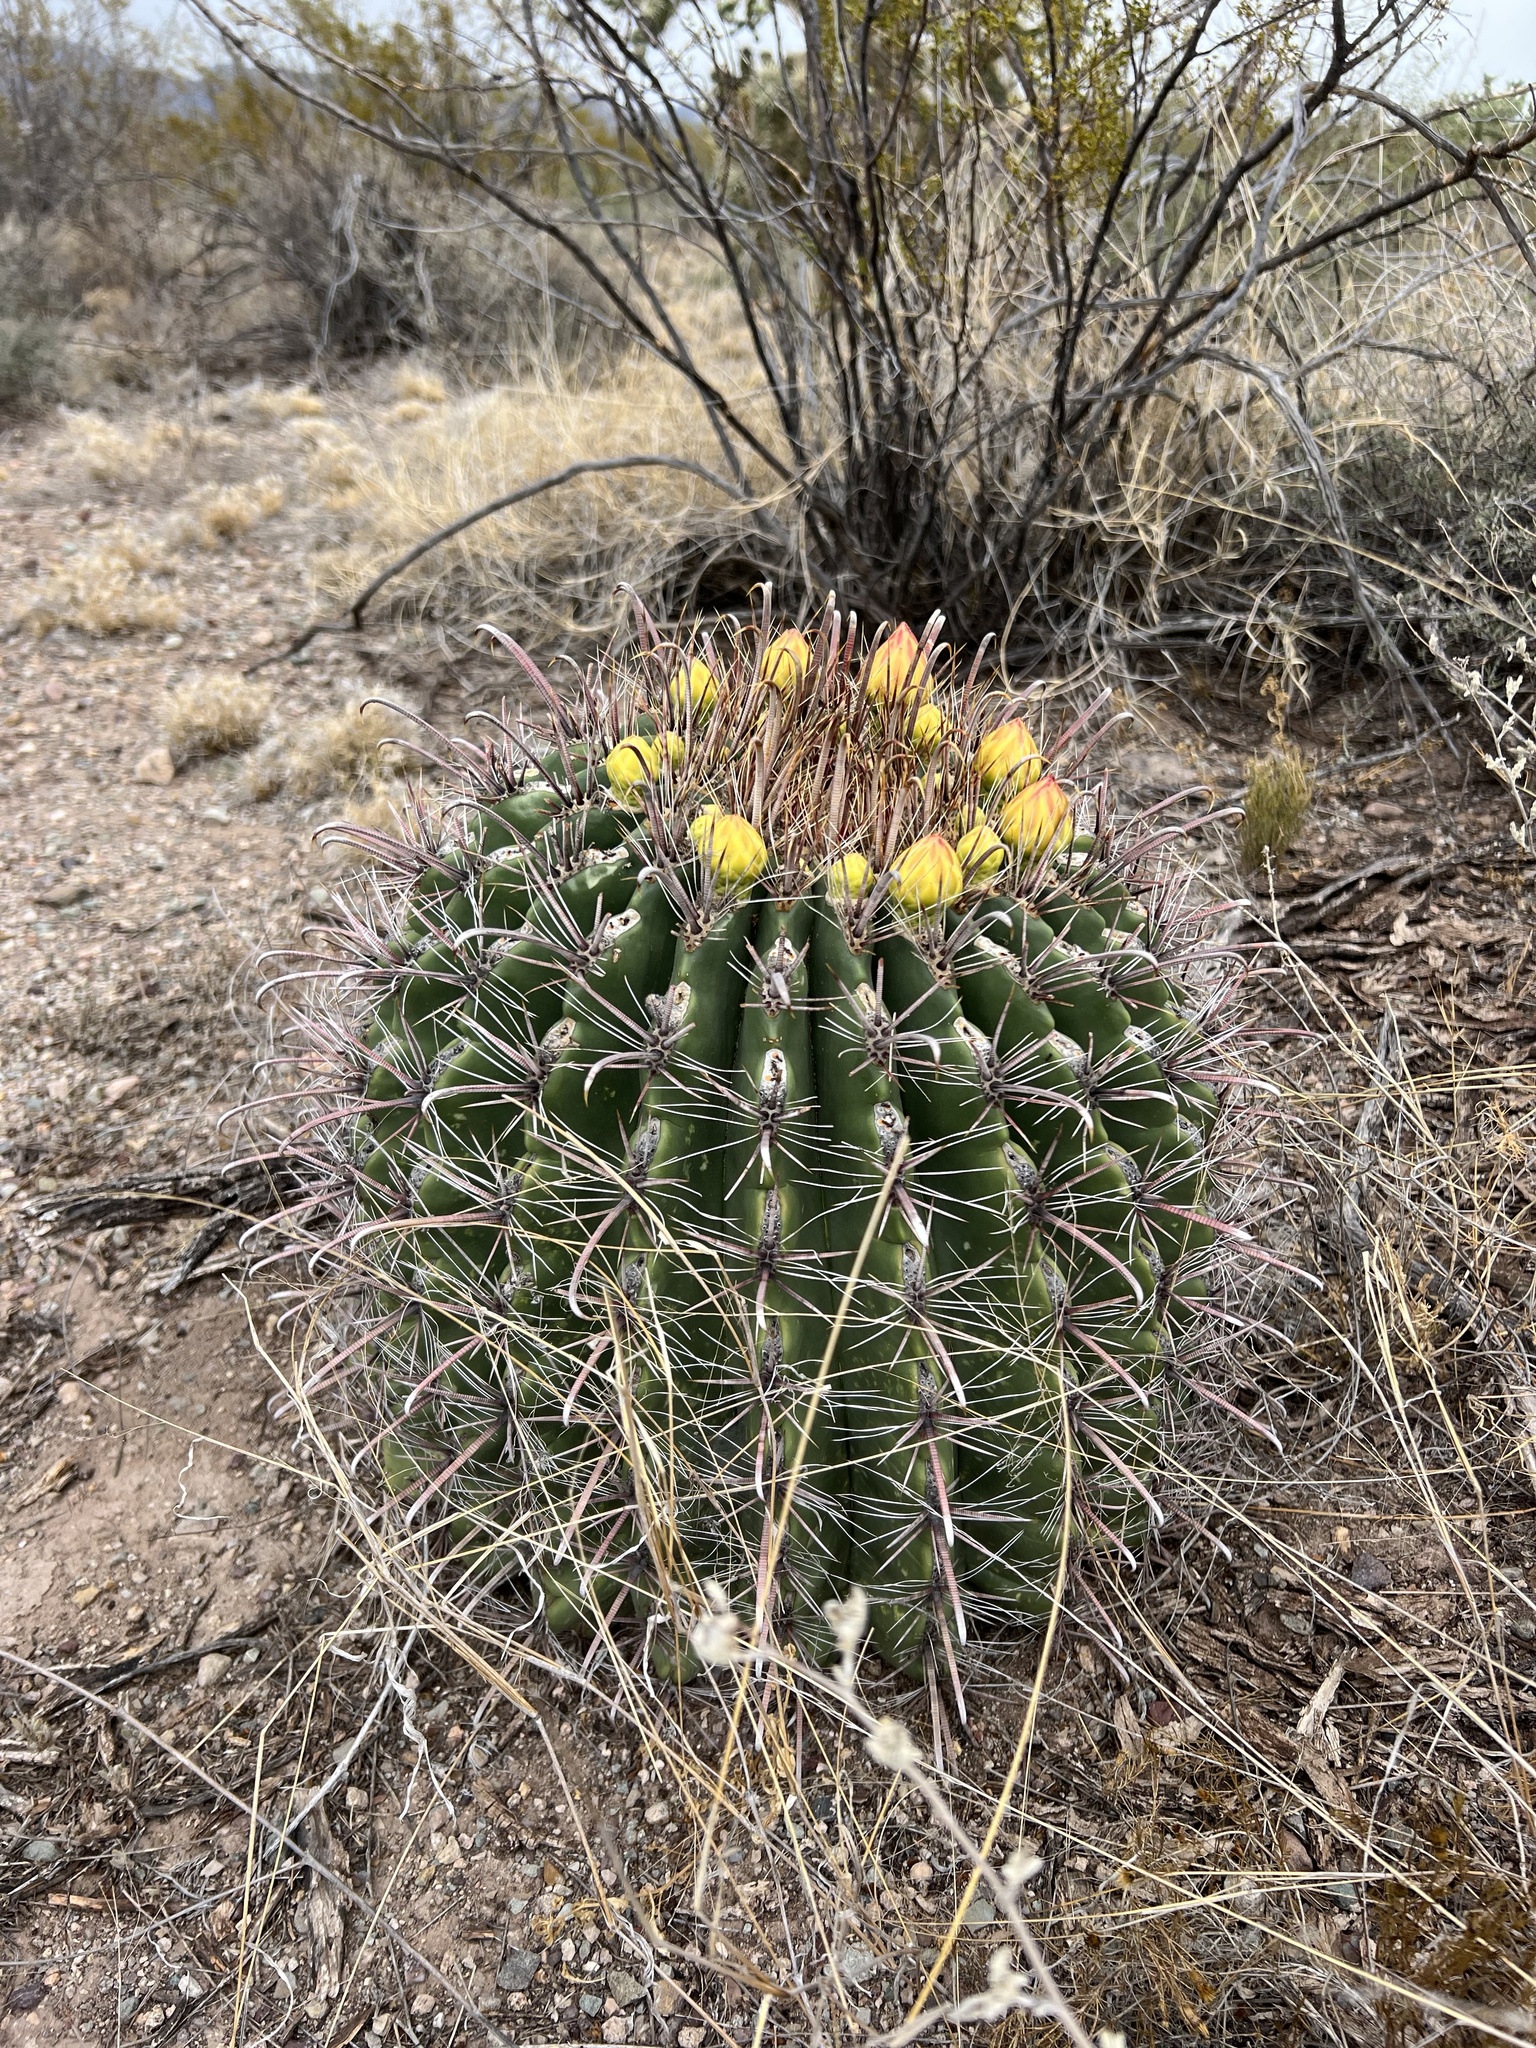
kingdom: Plantae
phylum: Tracheophyta
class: Magnoliopsida
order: Caryophyllales
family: Cactaceae
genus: Ferocactus
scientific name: Ferocactus wislizeni
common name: Candy barrel cactus
